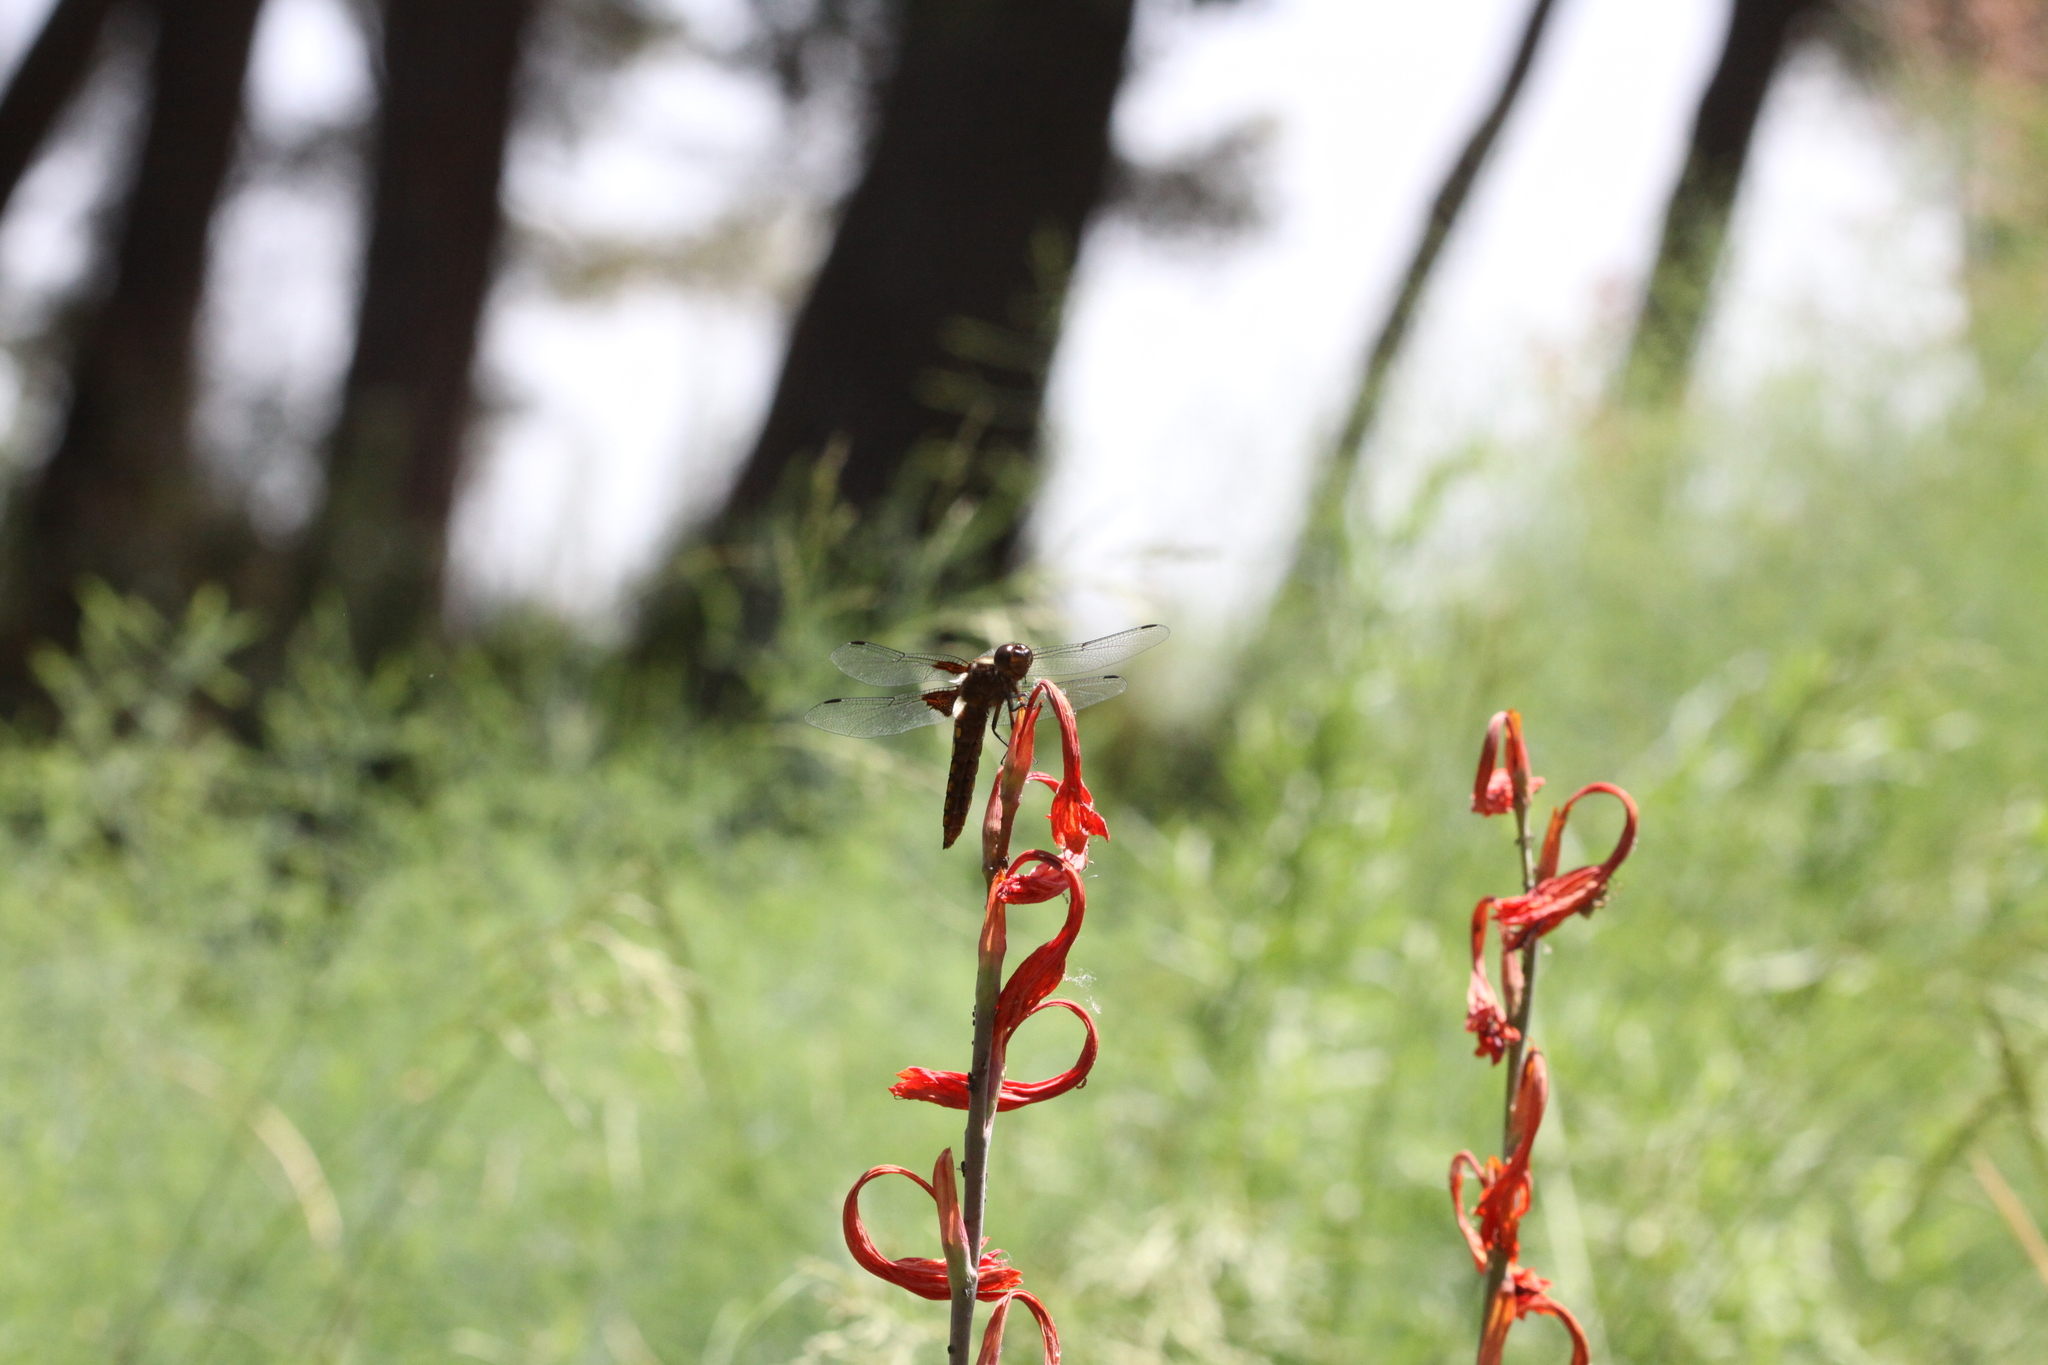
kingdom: Animalia
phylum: Arthropoda
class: Insecta
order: Odonata
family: Libellulidae
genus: Libellula
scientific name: Libellula depressa
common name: Broad-bodied chaser
